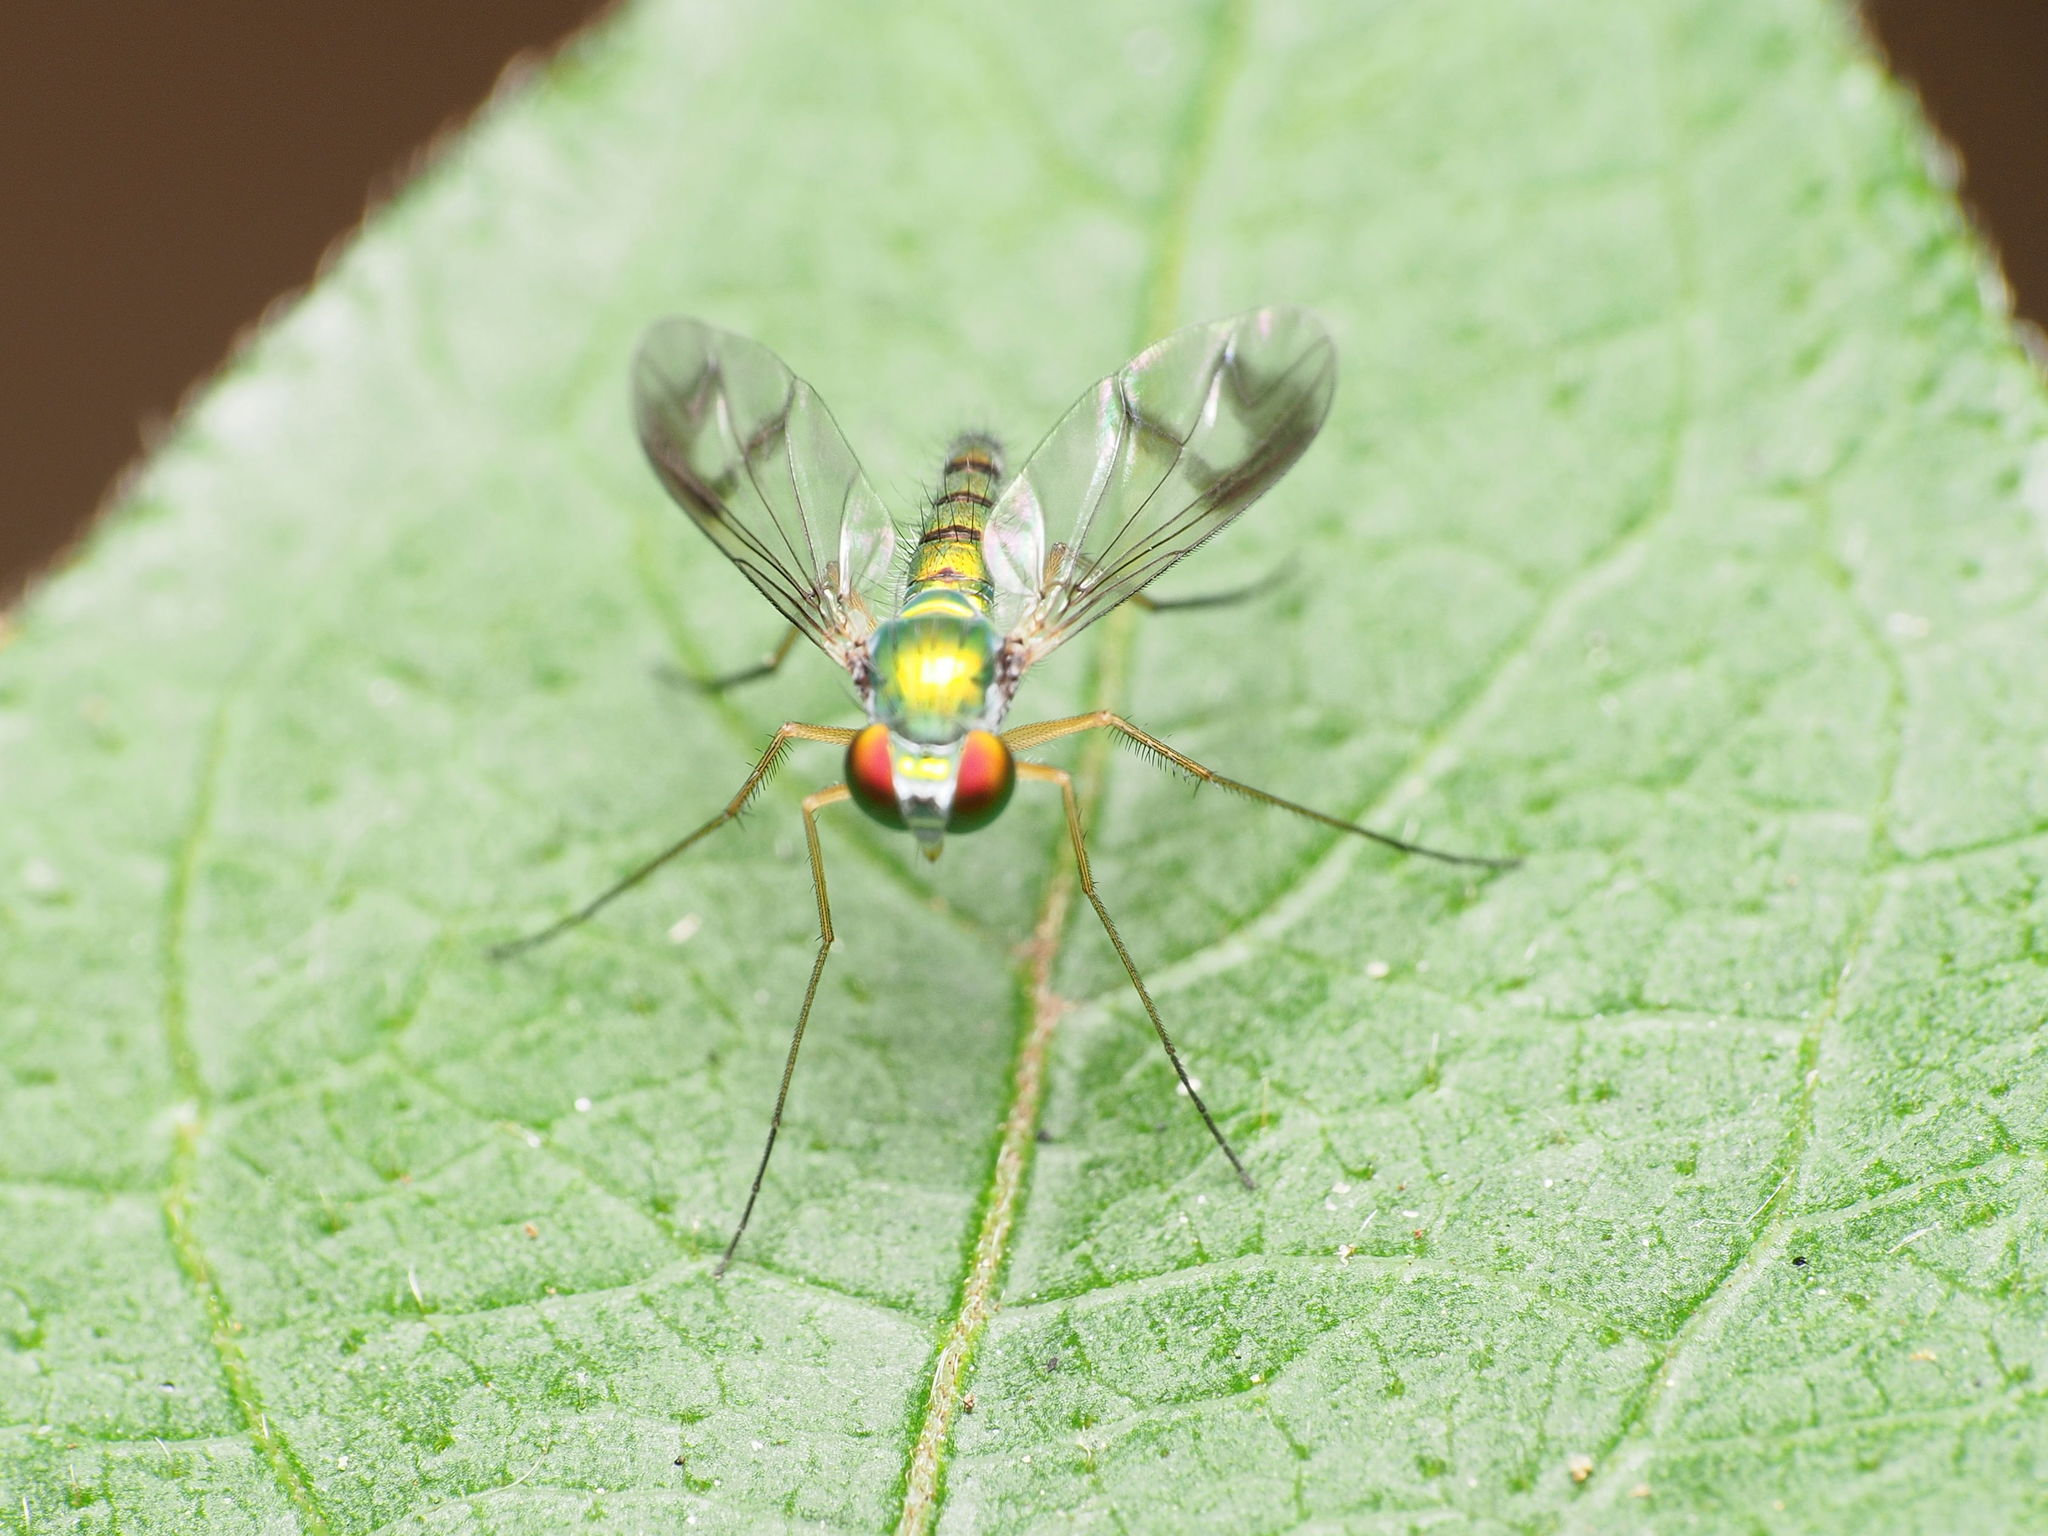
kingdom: Animalia
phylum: Arthropoda
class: Insecta
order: Diptera
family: Dolichopodidae
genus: Condylostylus
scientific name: Condylostylus
